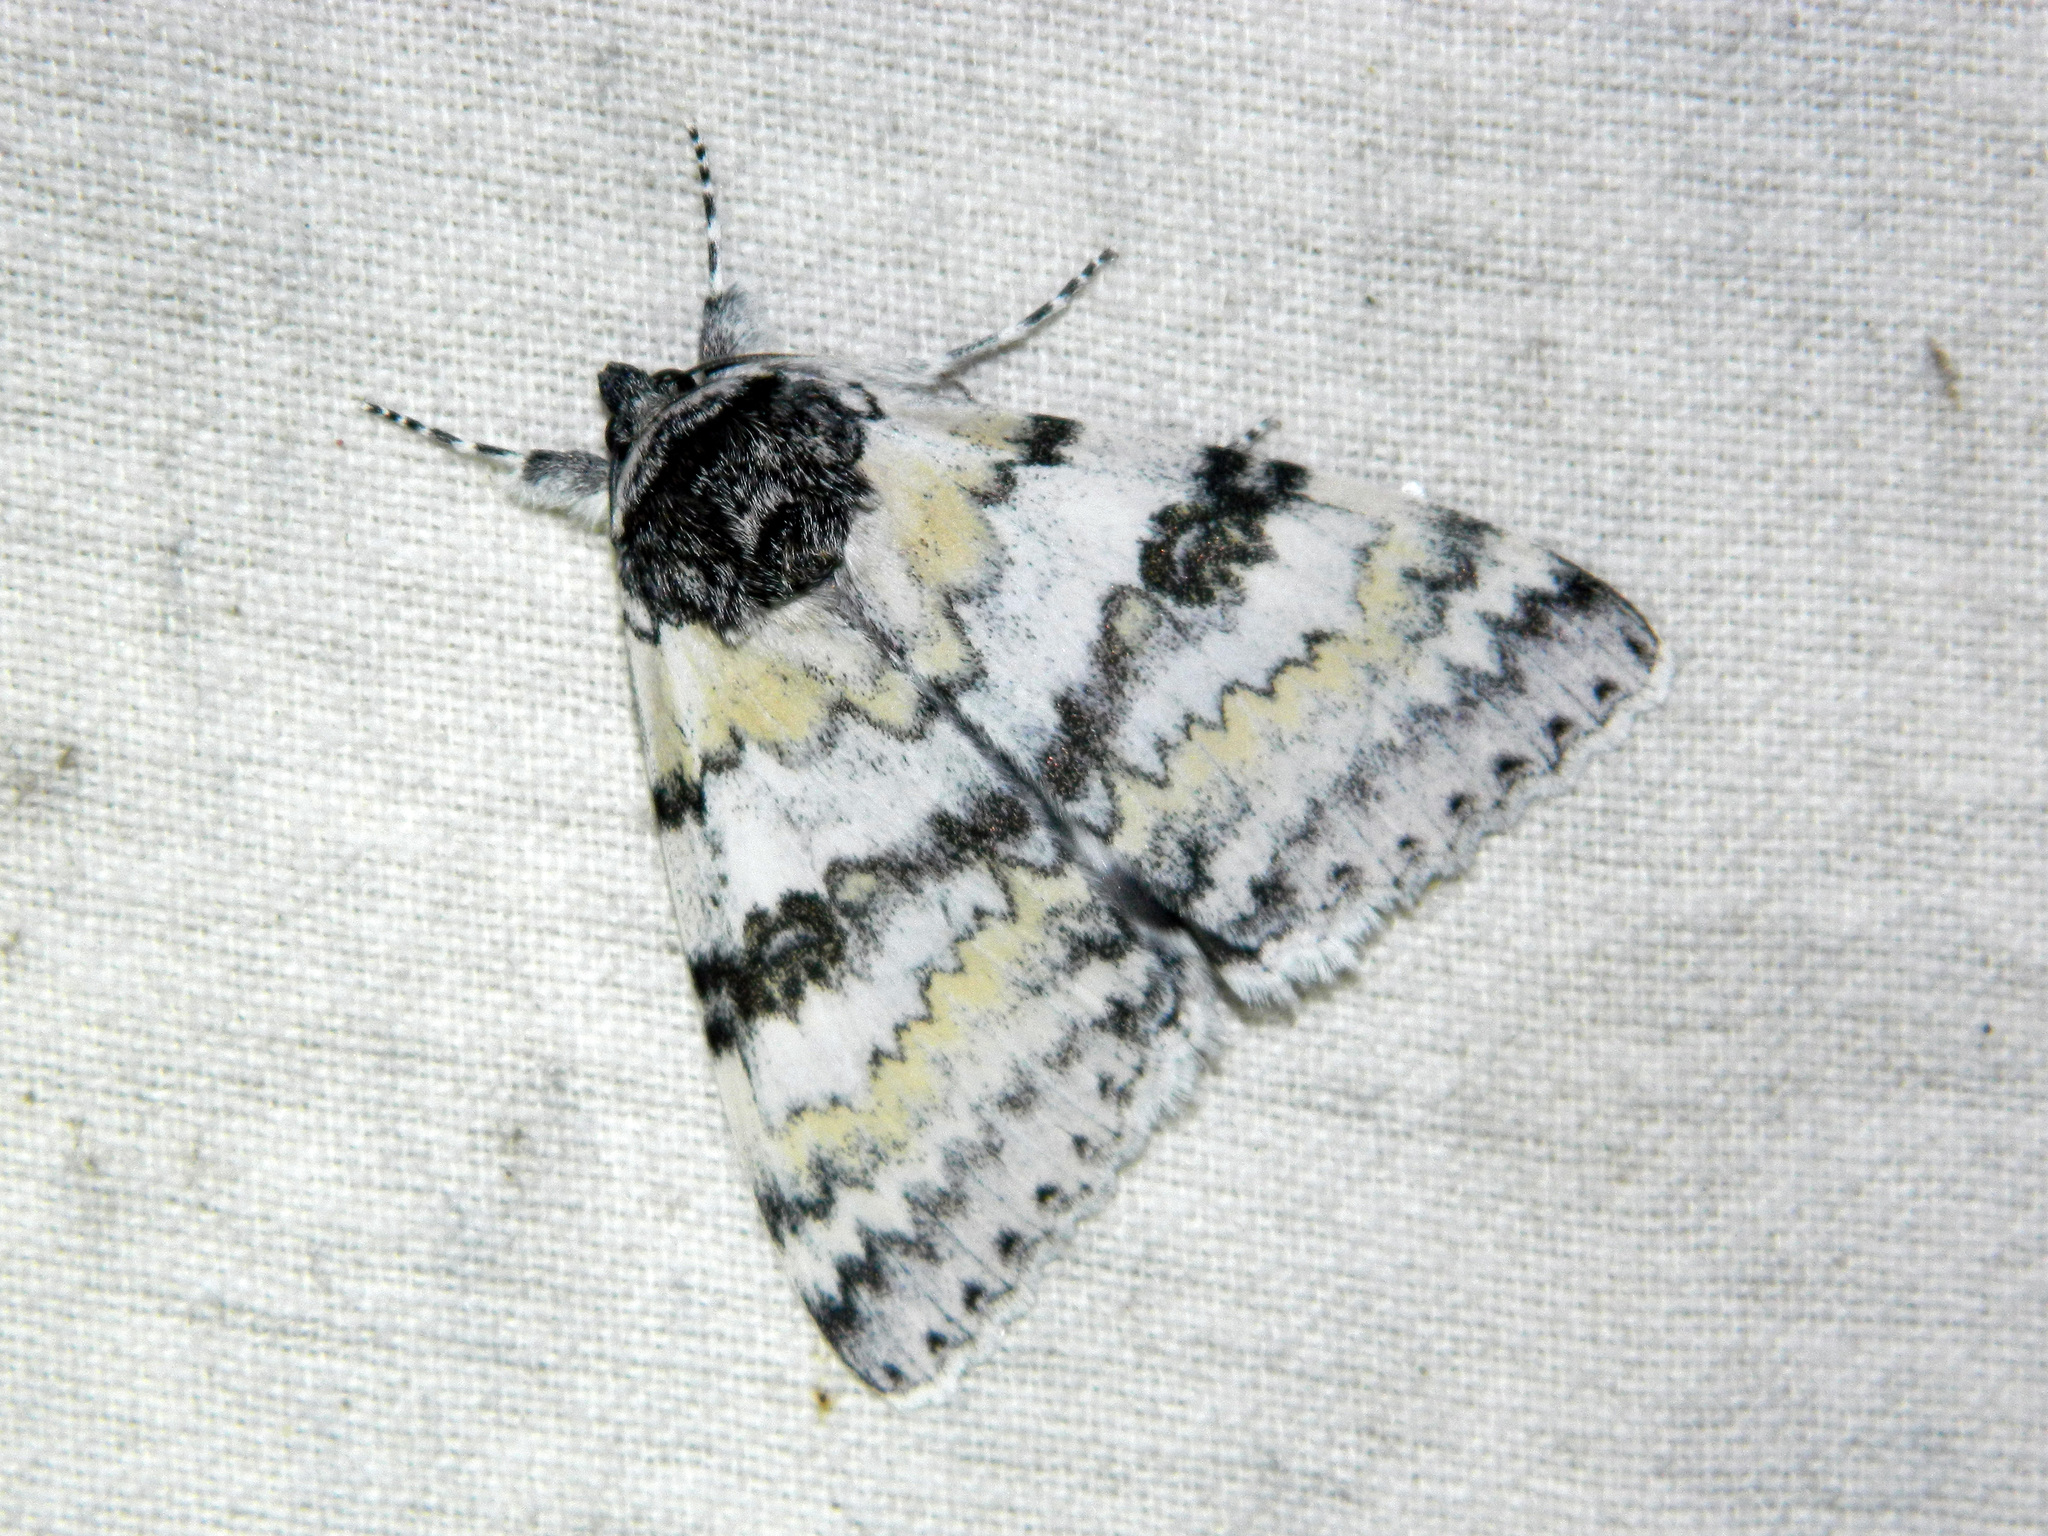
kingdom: Animalia
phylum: Arthropoda
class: Insecta
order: Lepidoptera
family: Erebidae
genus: Catocala
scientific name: Catocala relicta
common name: White underwing
